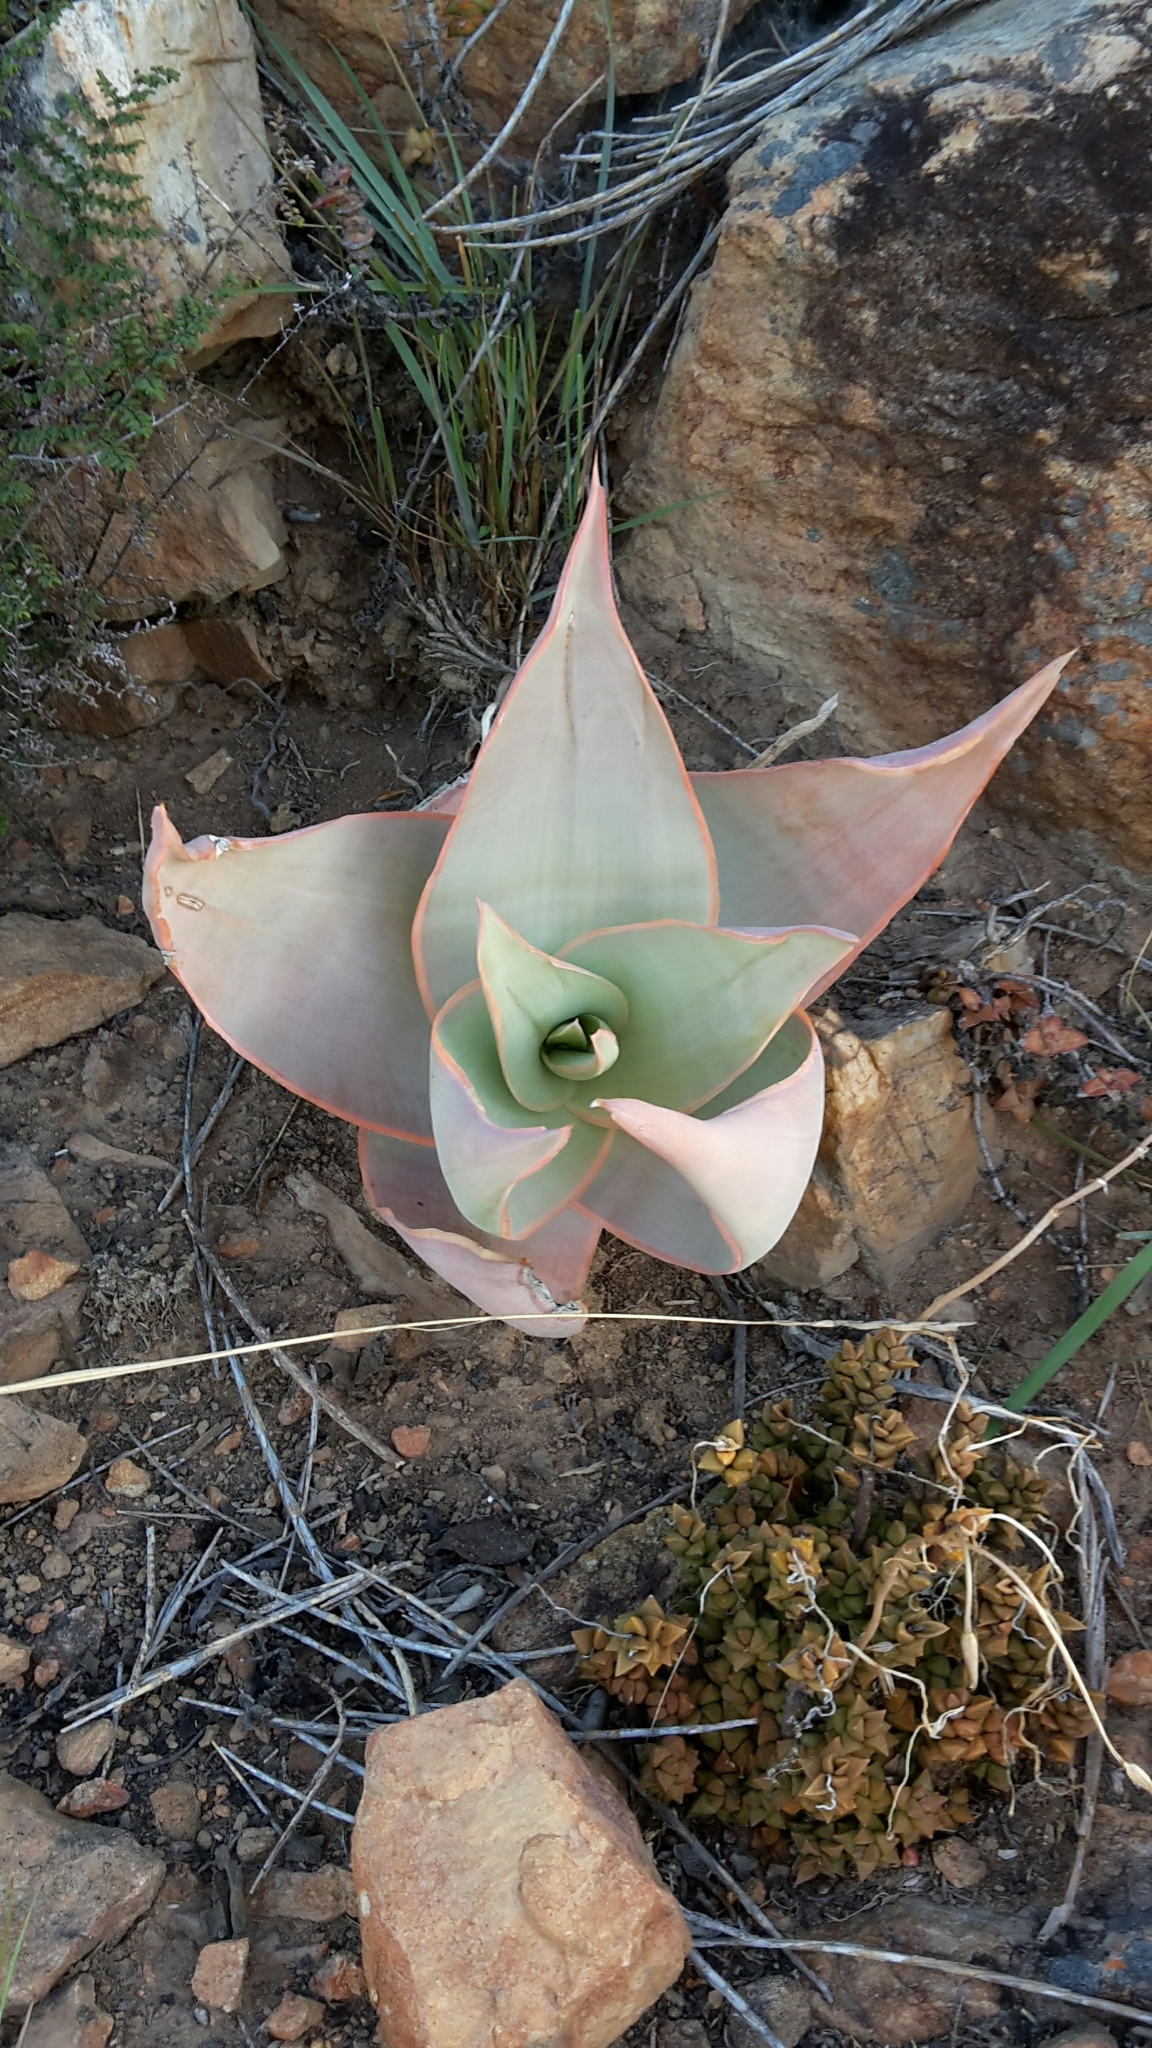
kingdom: Plantae
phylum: Tracheophyta
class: Liliopsida
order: Asparagales
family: Asphodelaceae
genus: Aloe
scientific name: Aloe striata
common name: Coral aloe
